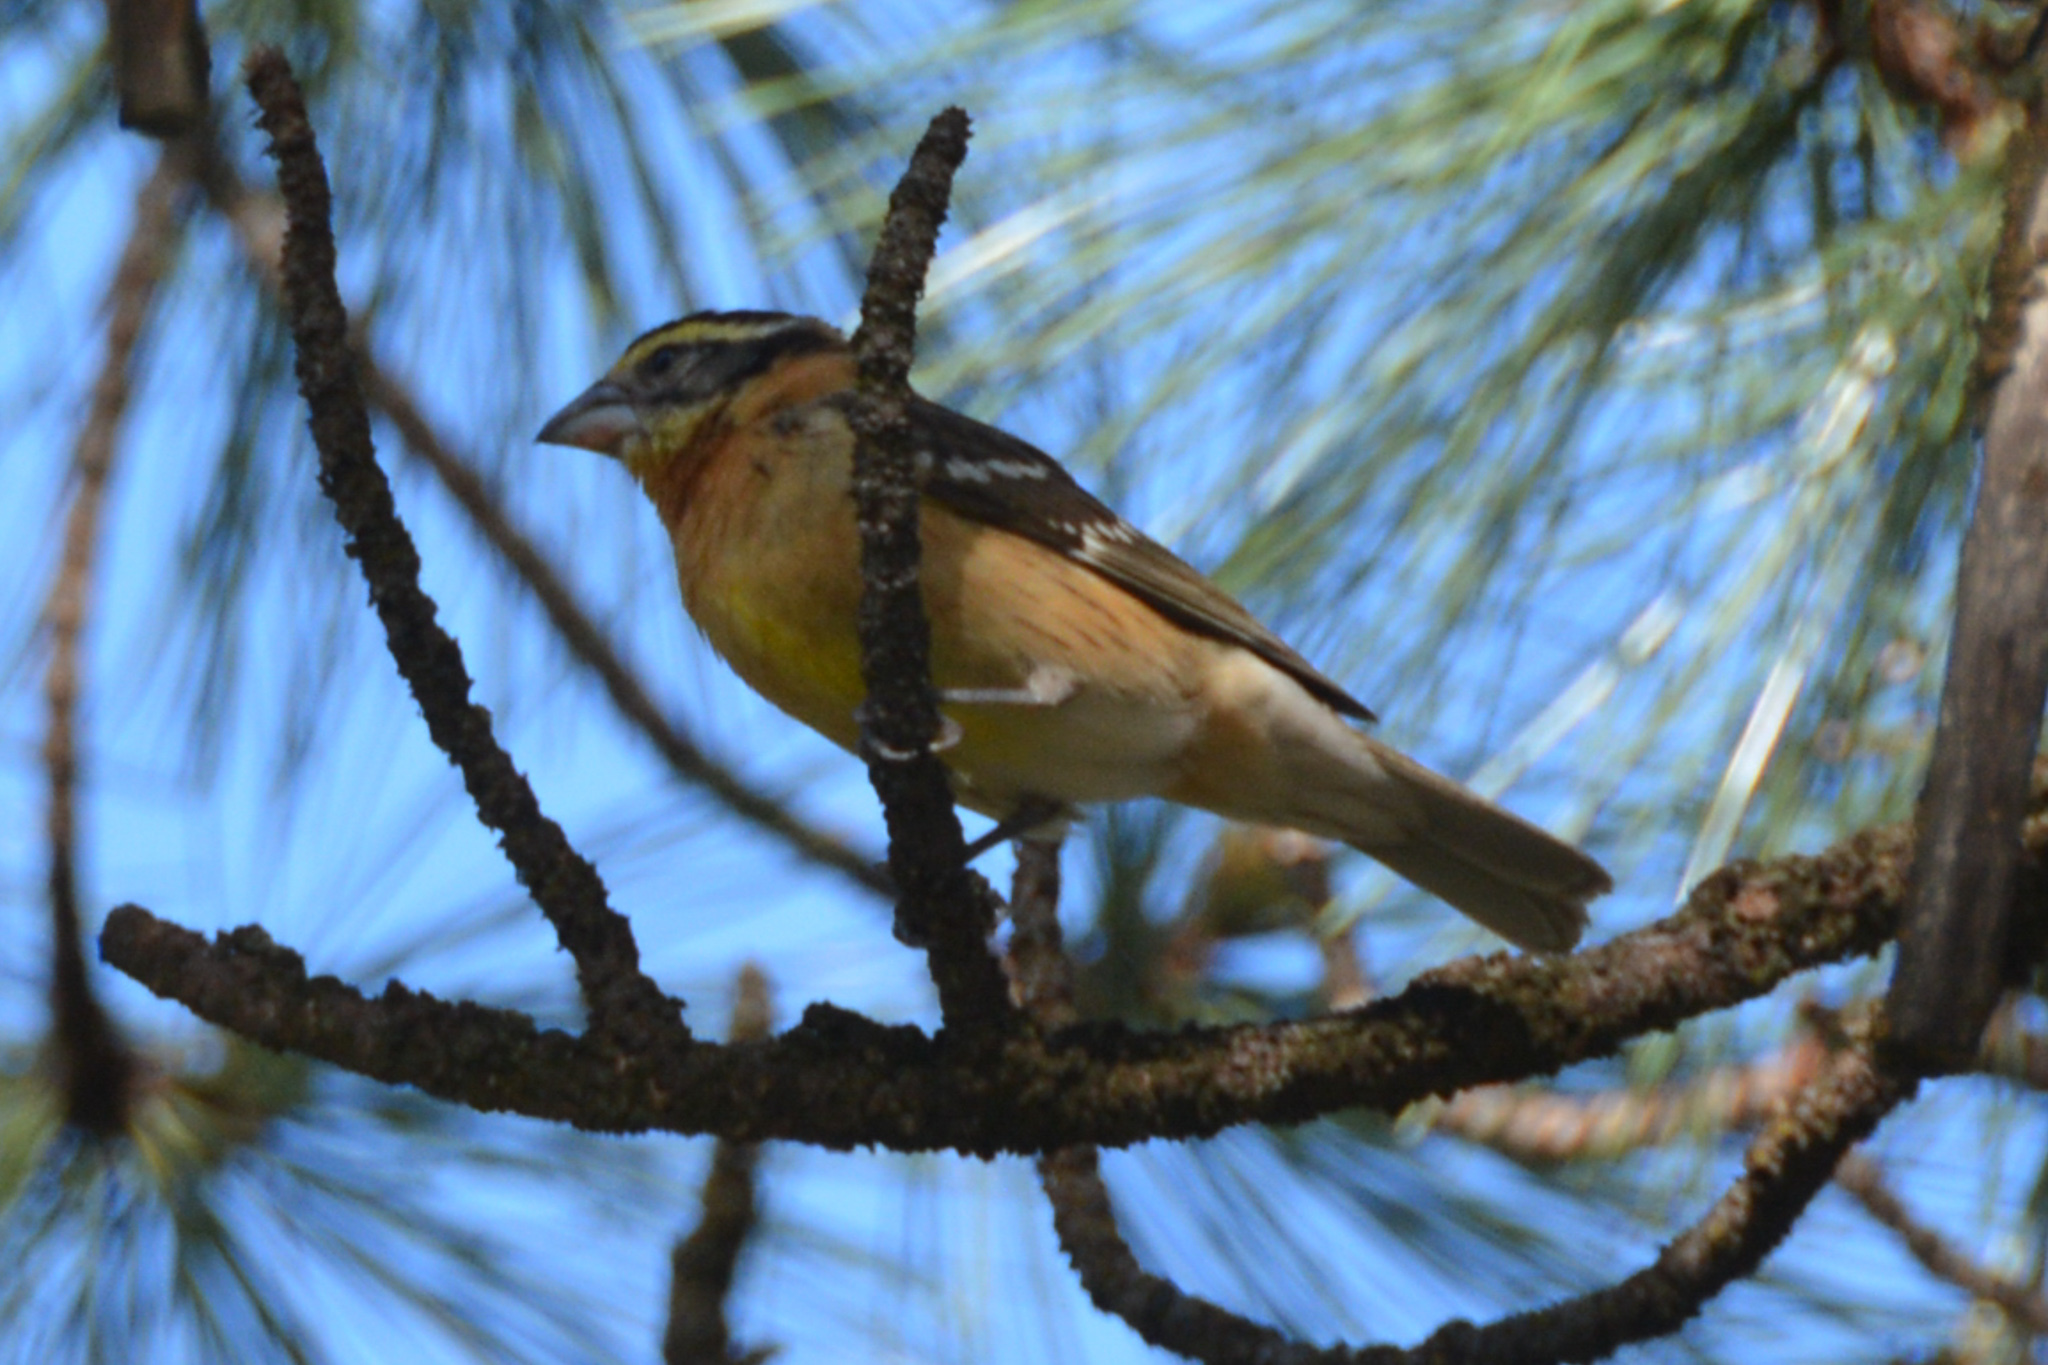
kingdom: Animalia
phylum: Chordata
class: Aves
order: Passeriformes
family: Cardinalidae
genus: Pheucticus
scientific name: Pheucticus melanocephalus
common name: Black-headed grosbeak
